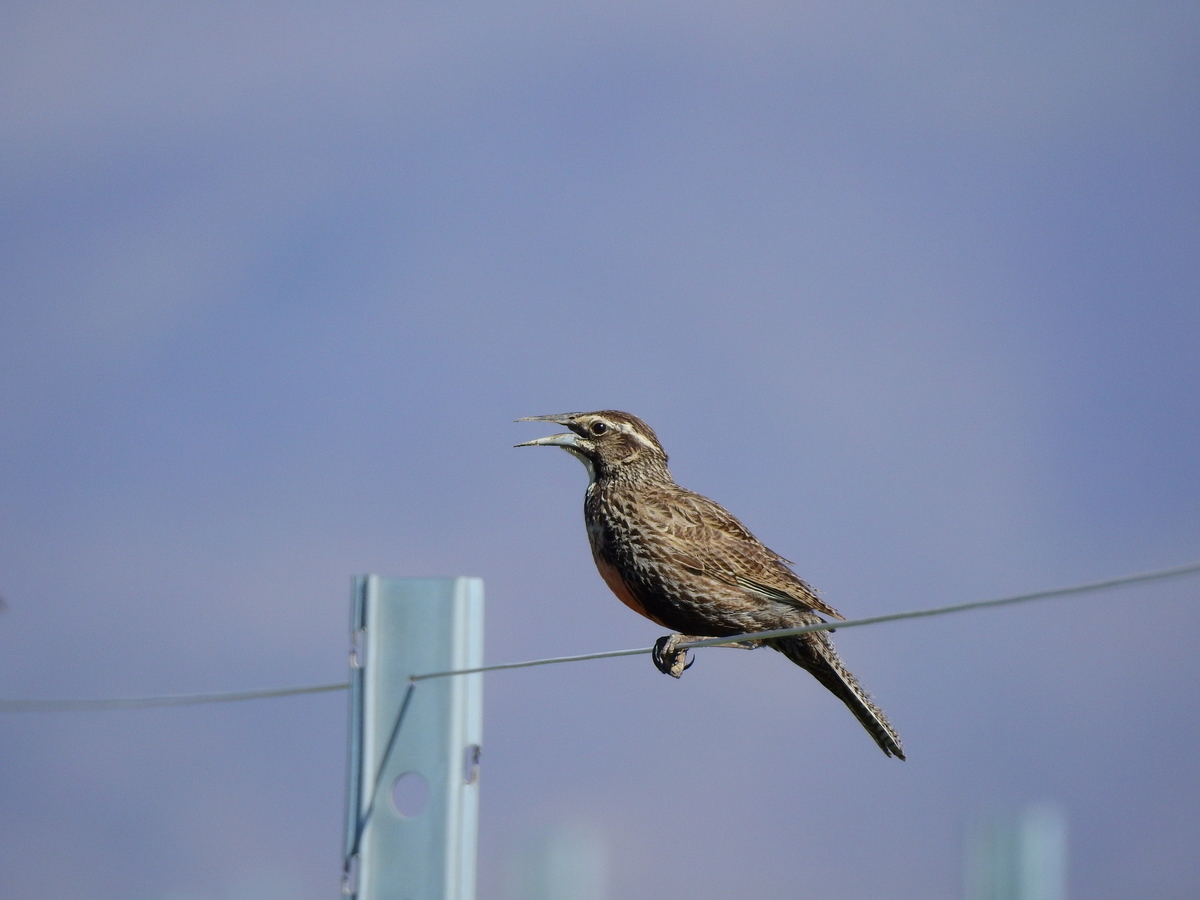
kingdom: Animalia
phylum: Chordata
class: Aves
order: Passeriformes
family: Icteridae
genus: Sturnella
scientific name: Sturnella loyca
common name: Long-tailed meadowlark
